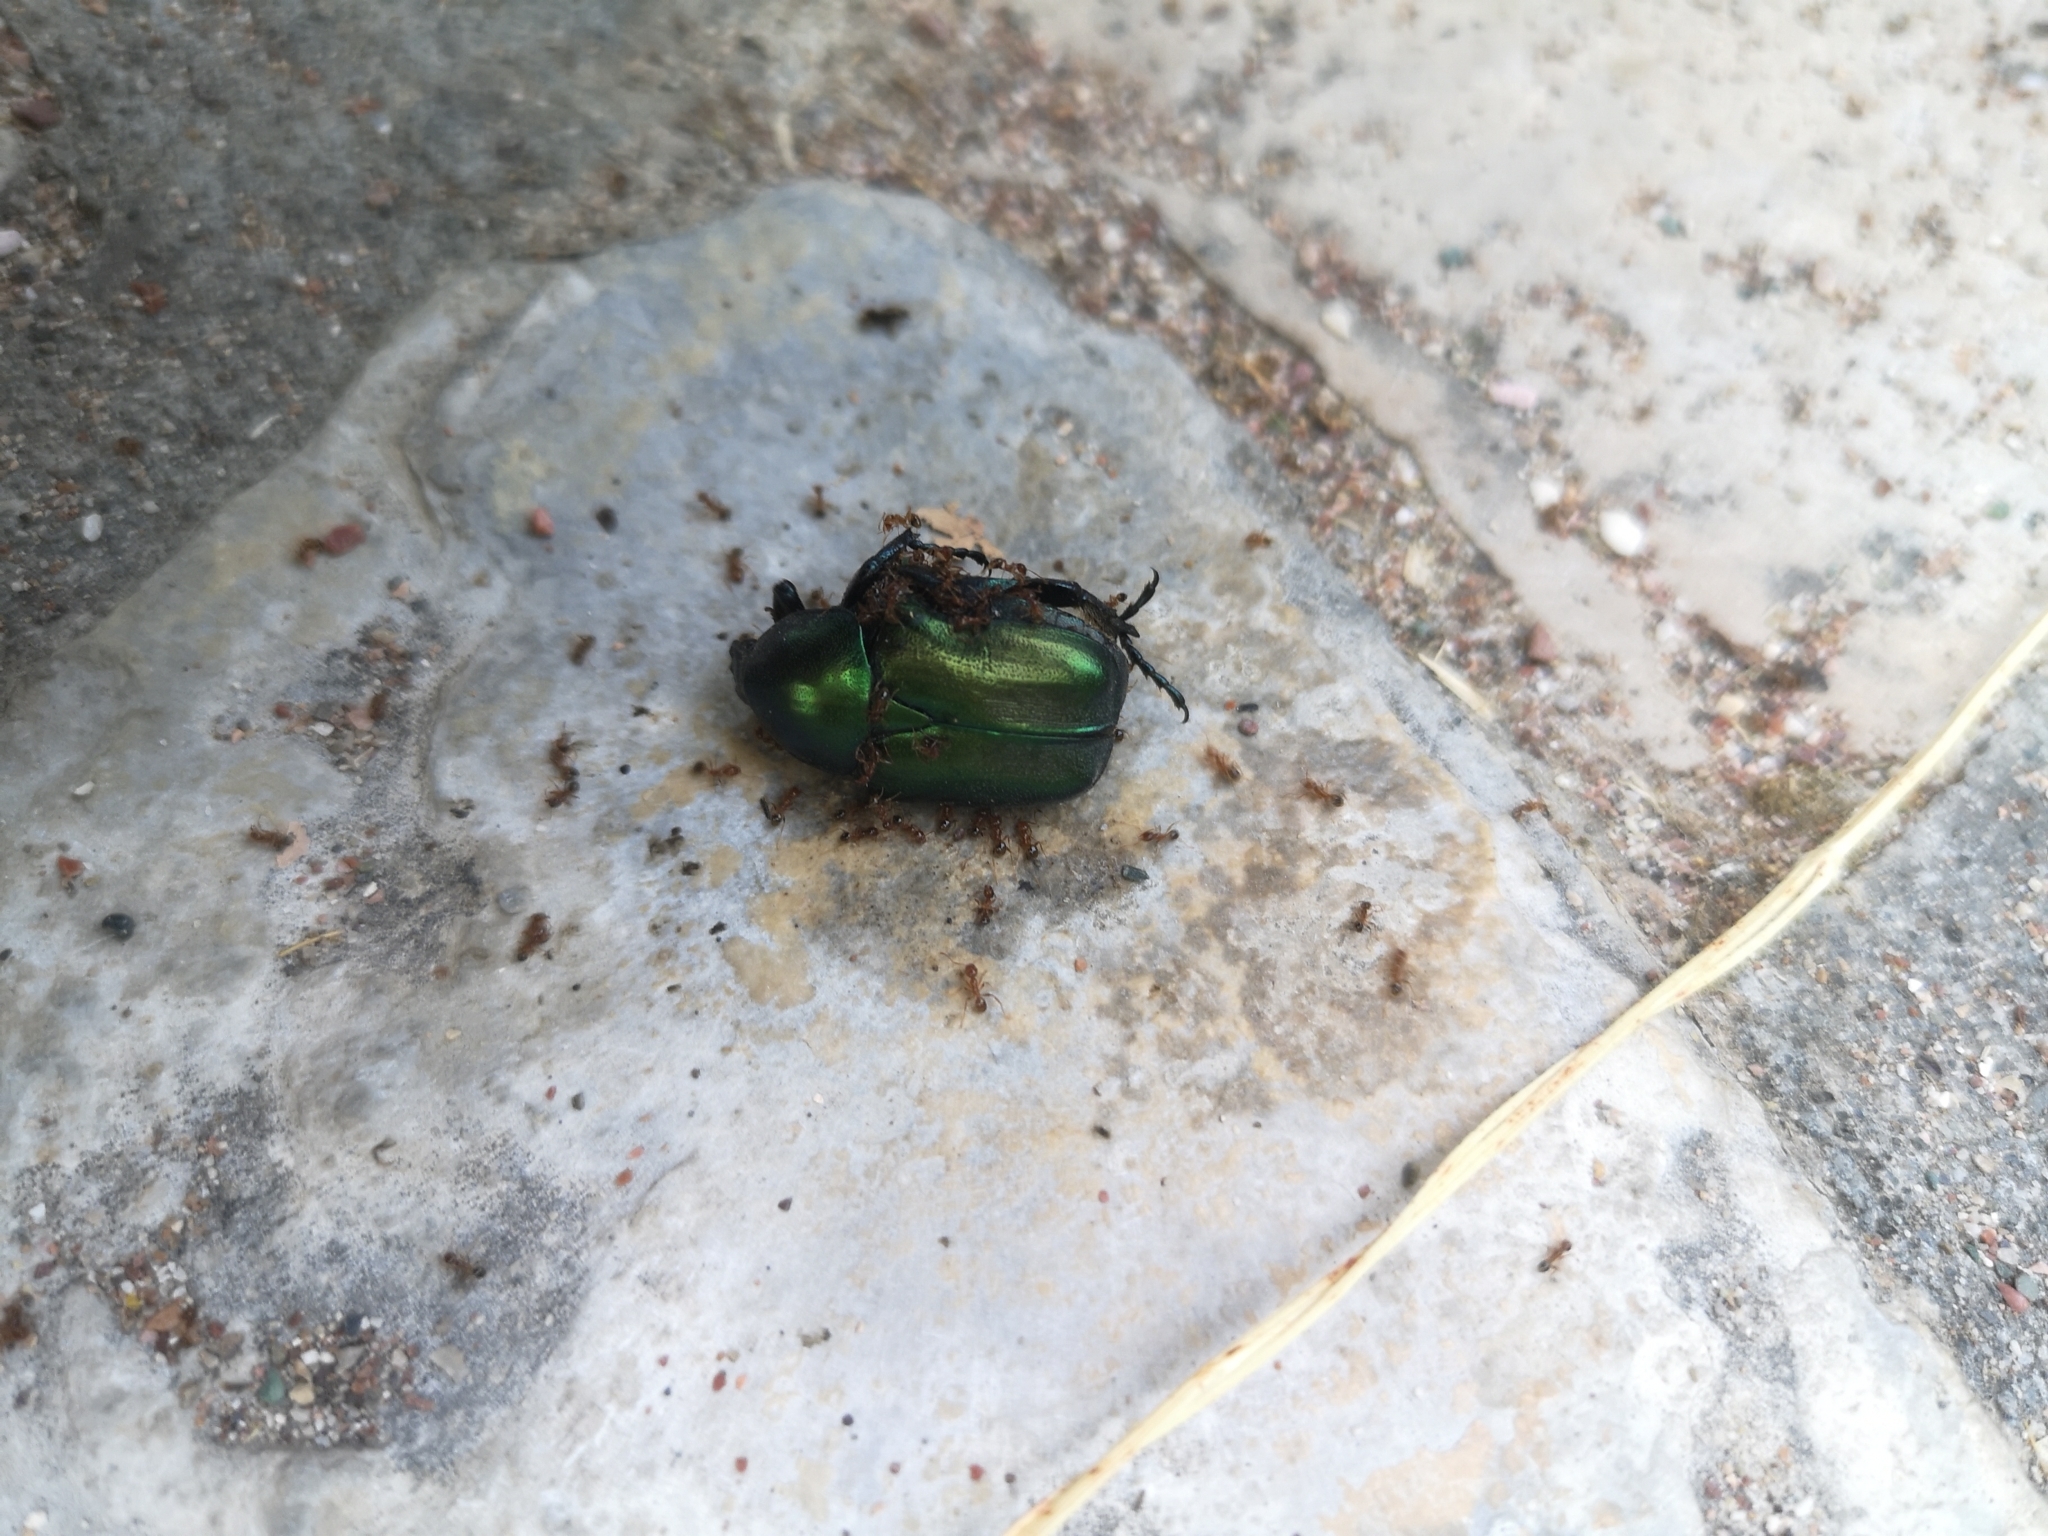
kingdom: Animalia
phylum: Arthropoda
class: Insecta
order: Coleoptera
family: Scarabaeidae
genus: Protaetia
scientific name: Protaetia angustata
